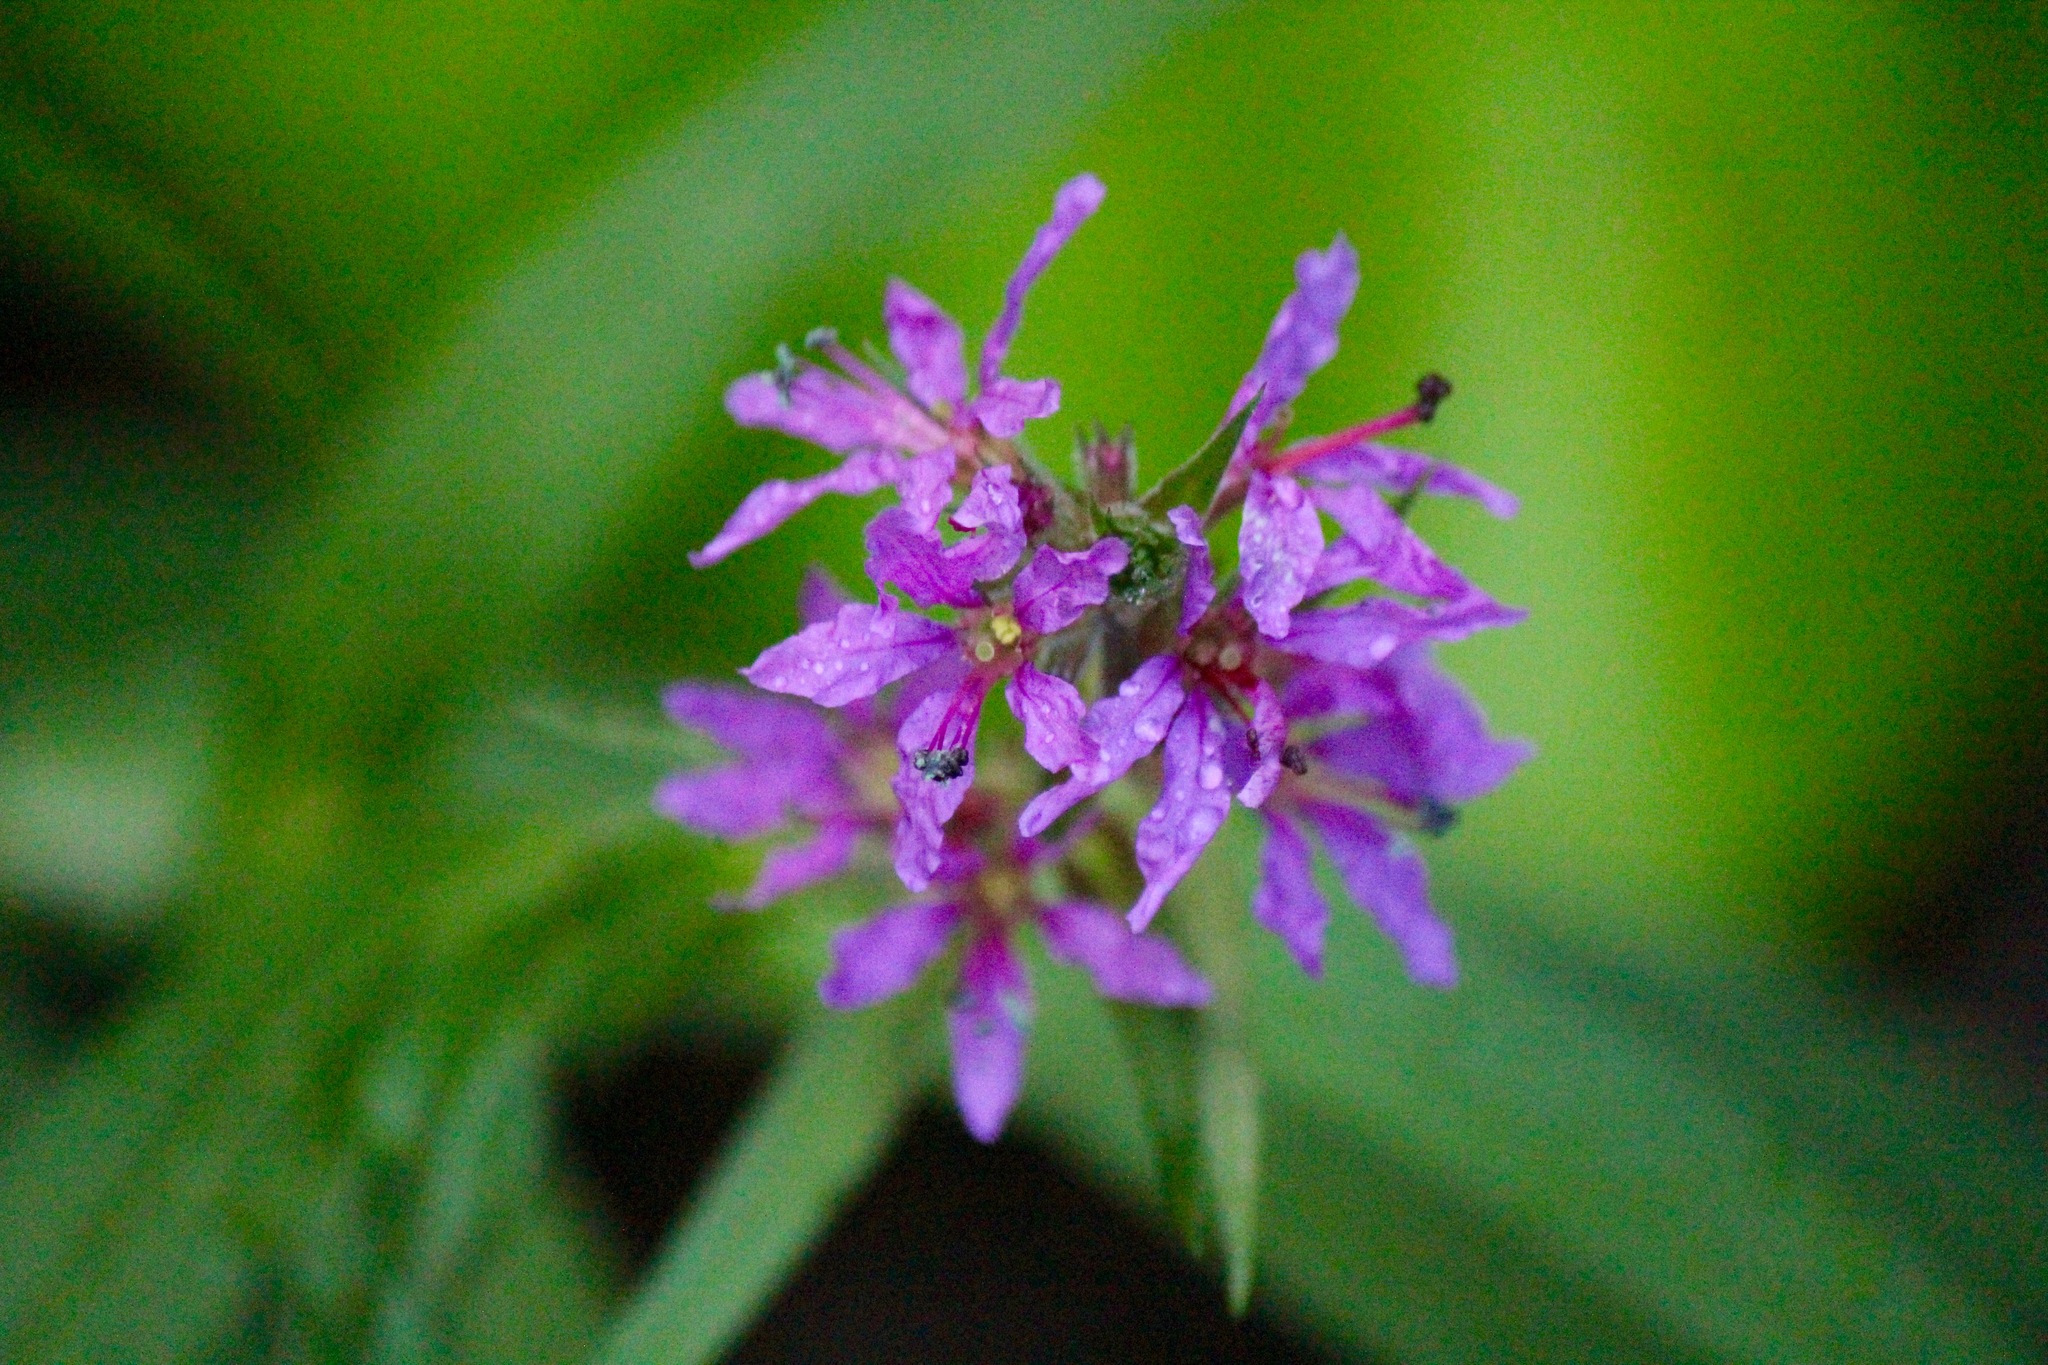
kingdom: Plantae
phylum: Tracheophyta
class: Magnoliopsida
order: Myrtales
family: Lythraceae
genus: Lythrum
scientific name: Lythrum salicaria
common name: Purple loosestrife
